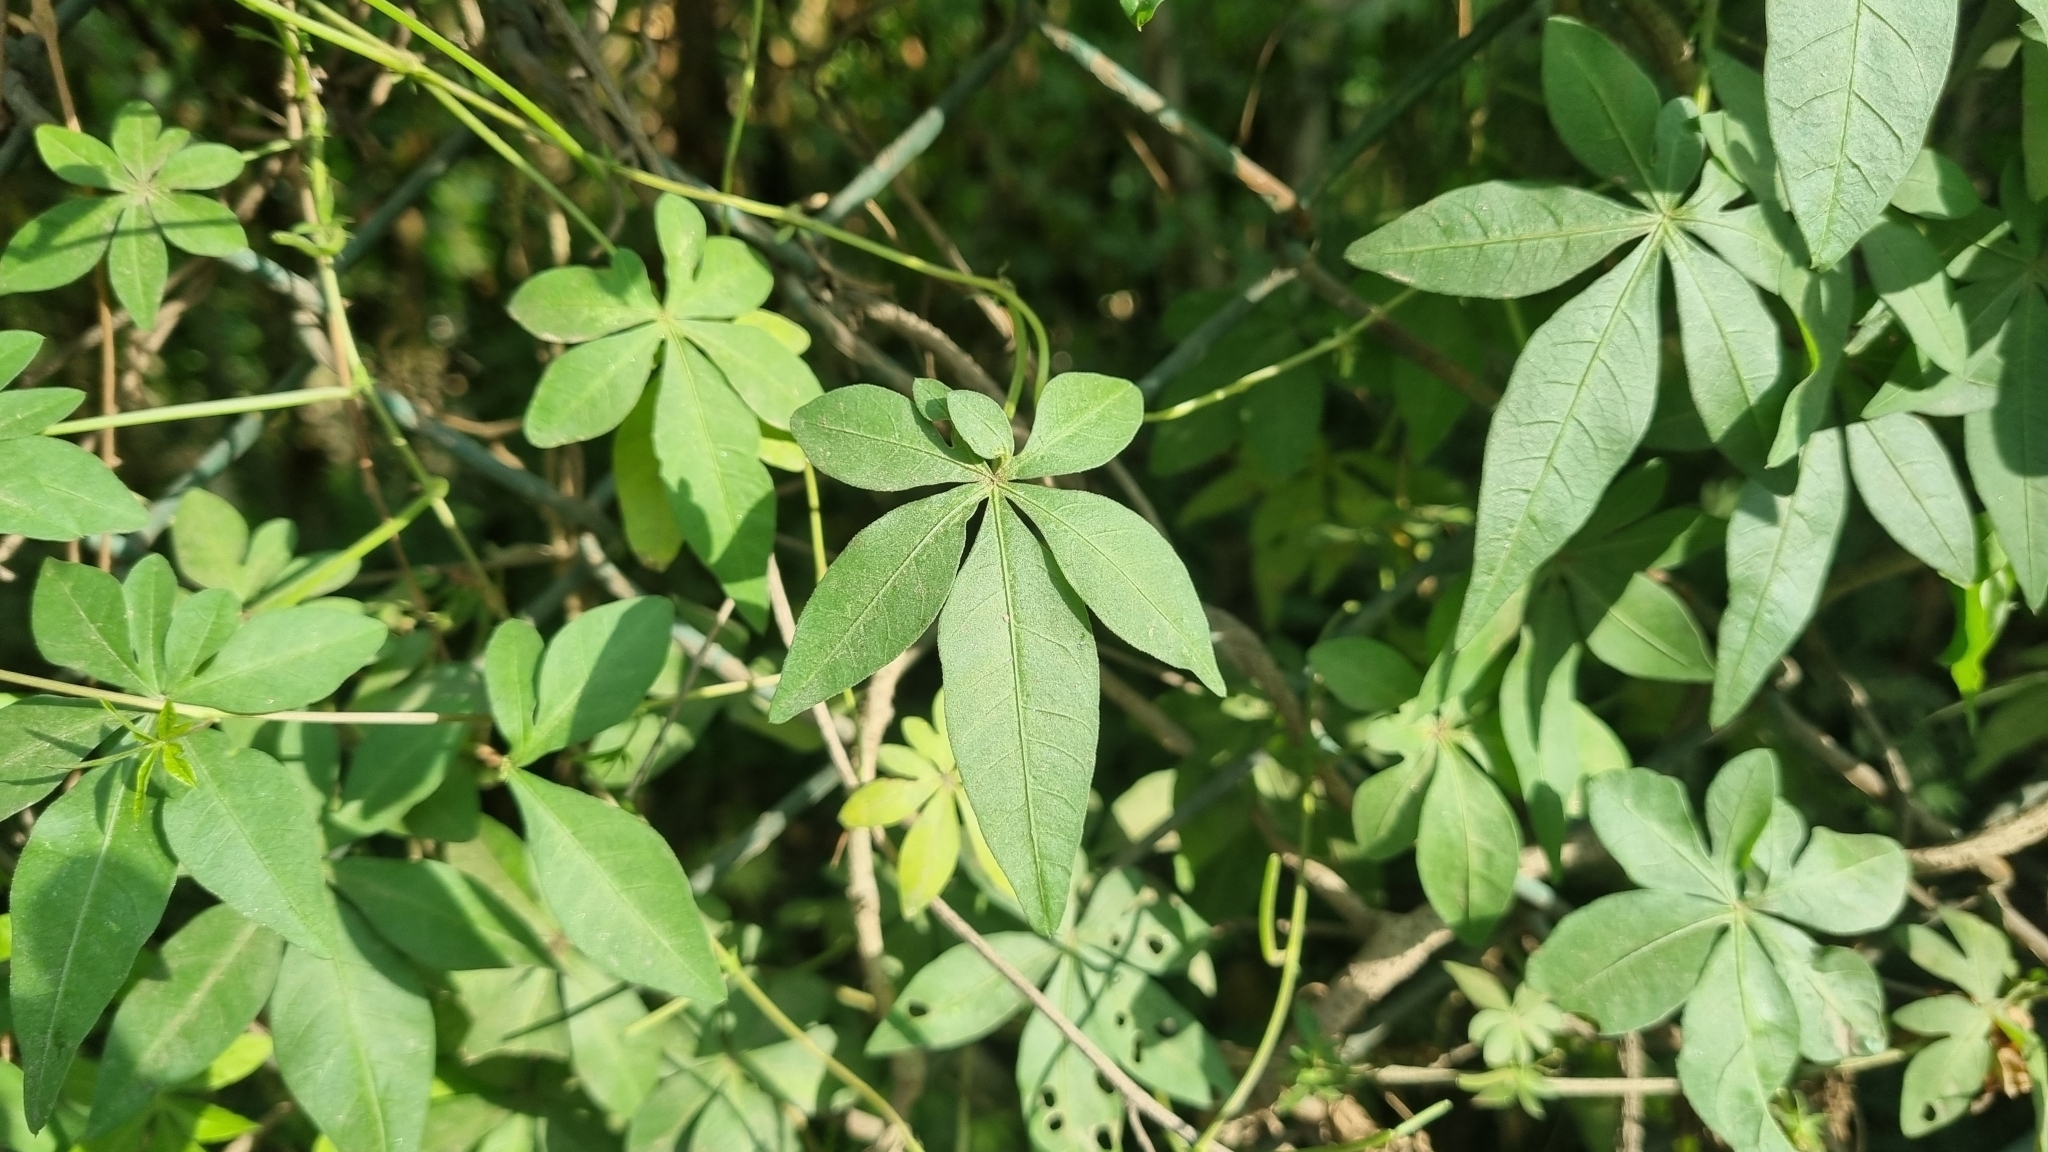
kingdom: Plantae
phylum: Tracheophyta
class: Magnoliopsida
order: Solanales
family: Convolvulaceae
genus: Ipomoea
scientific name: Ipomoea cairica
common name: Mile a minute vine
